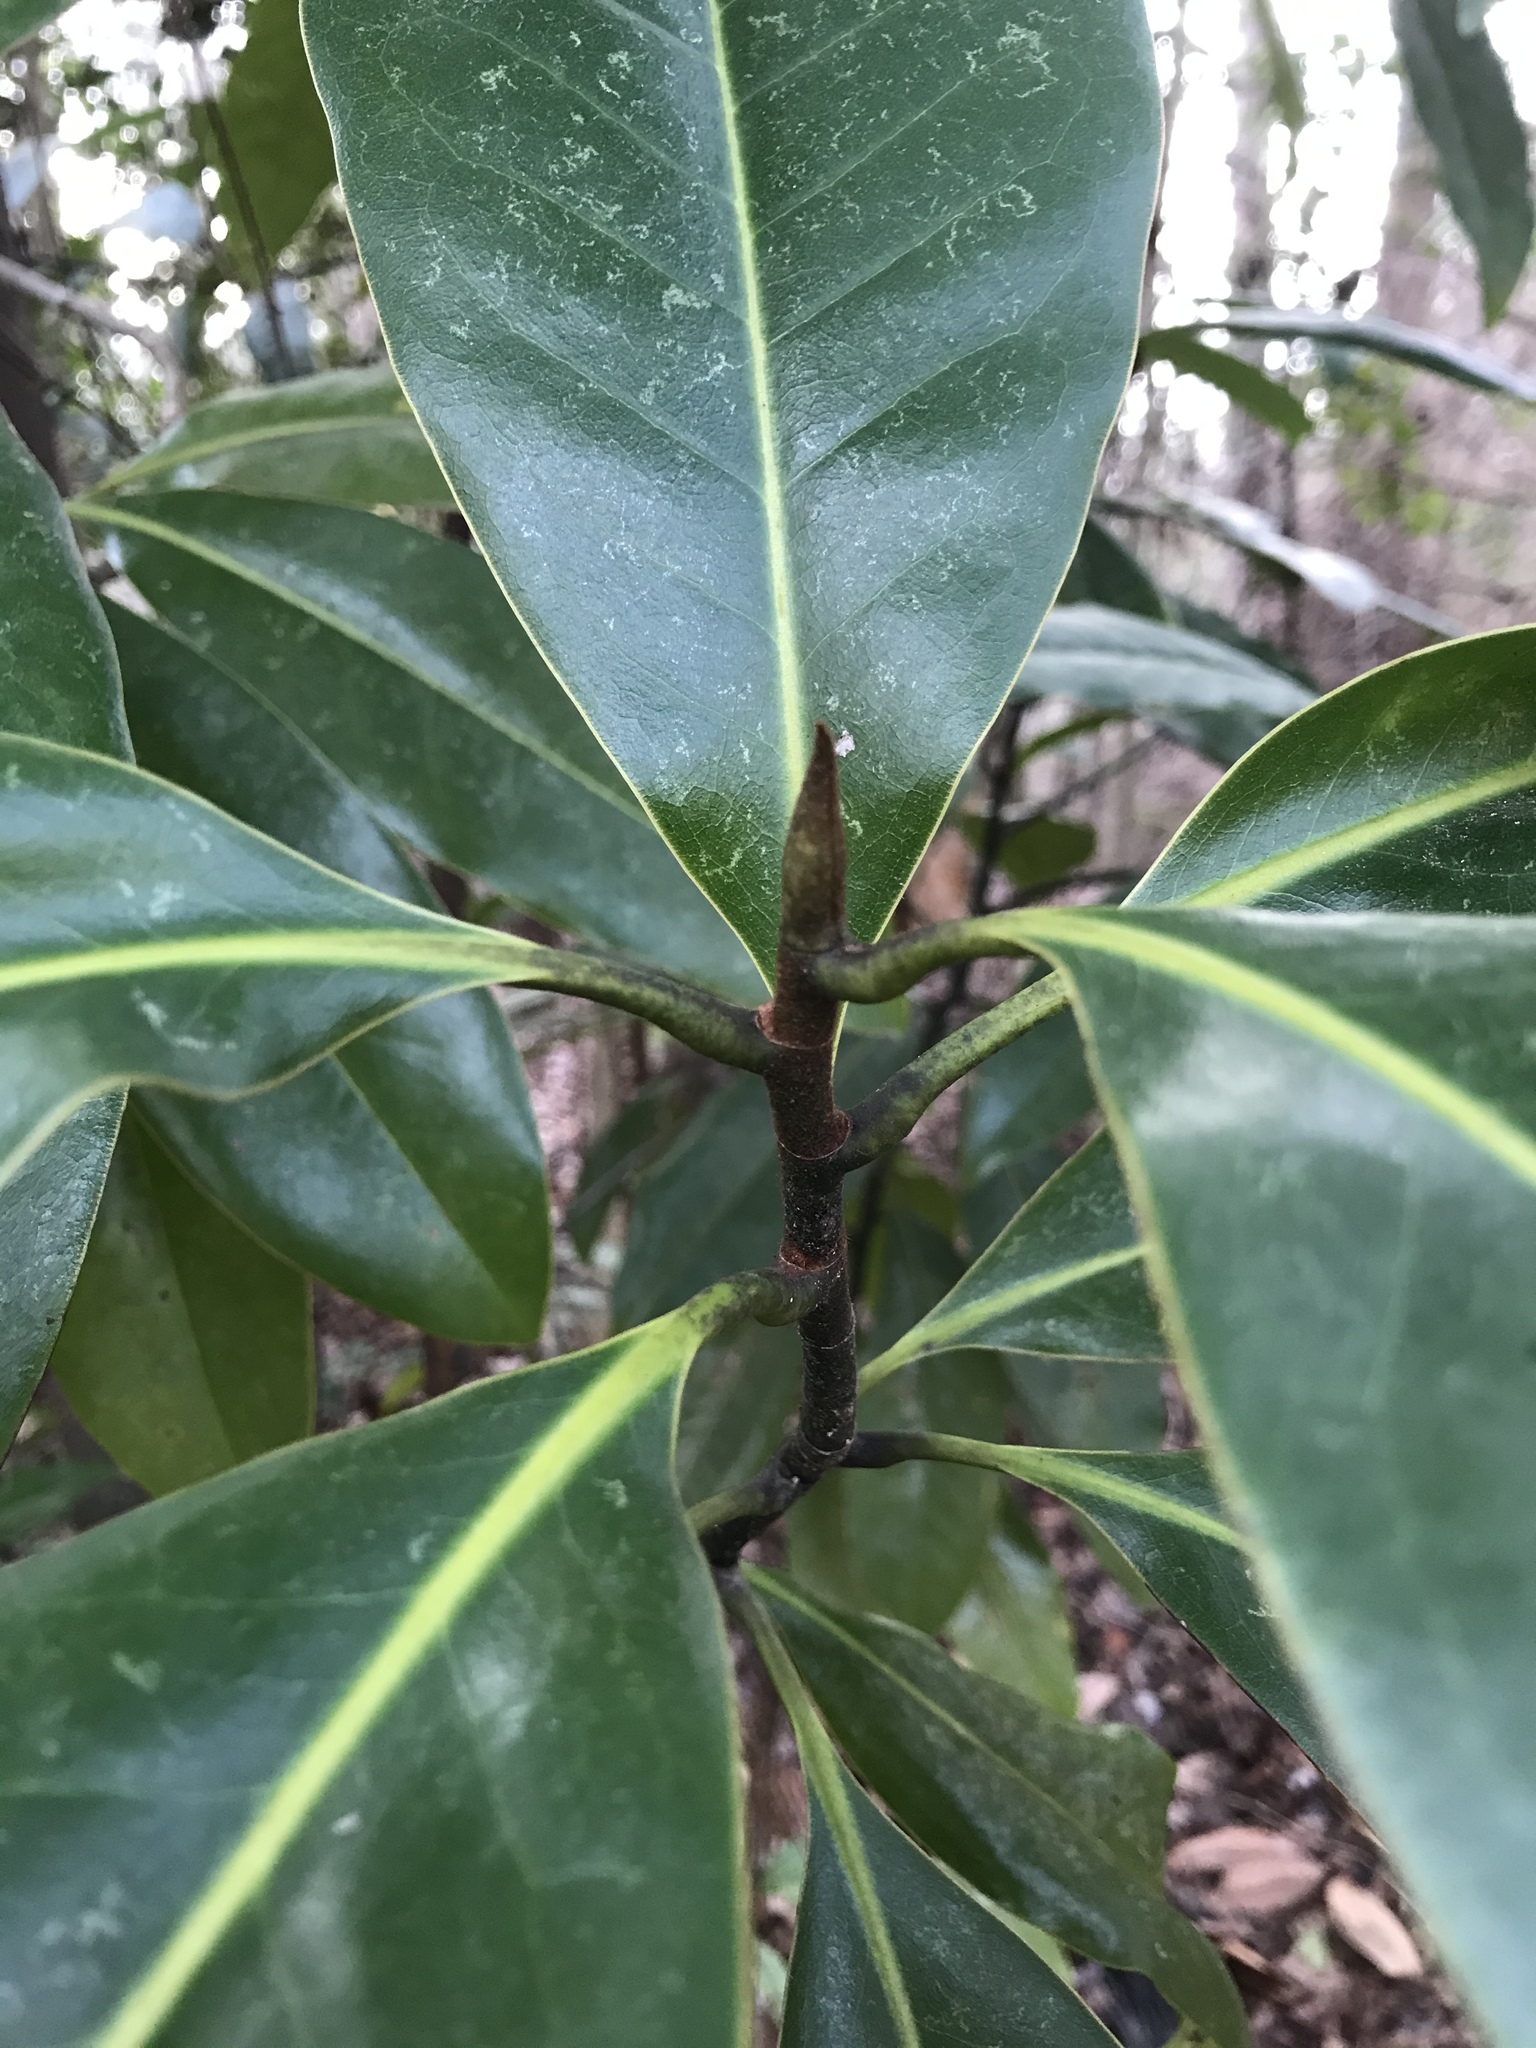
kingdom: Plantae
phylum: Tracheophyta
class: Magnoliopsida
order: Magnoliales
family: Magnoliaceae
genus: Magnolia
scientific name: Magnolia grandiflora
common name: Southern magnolia
